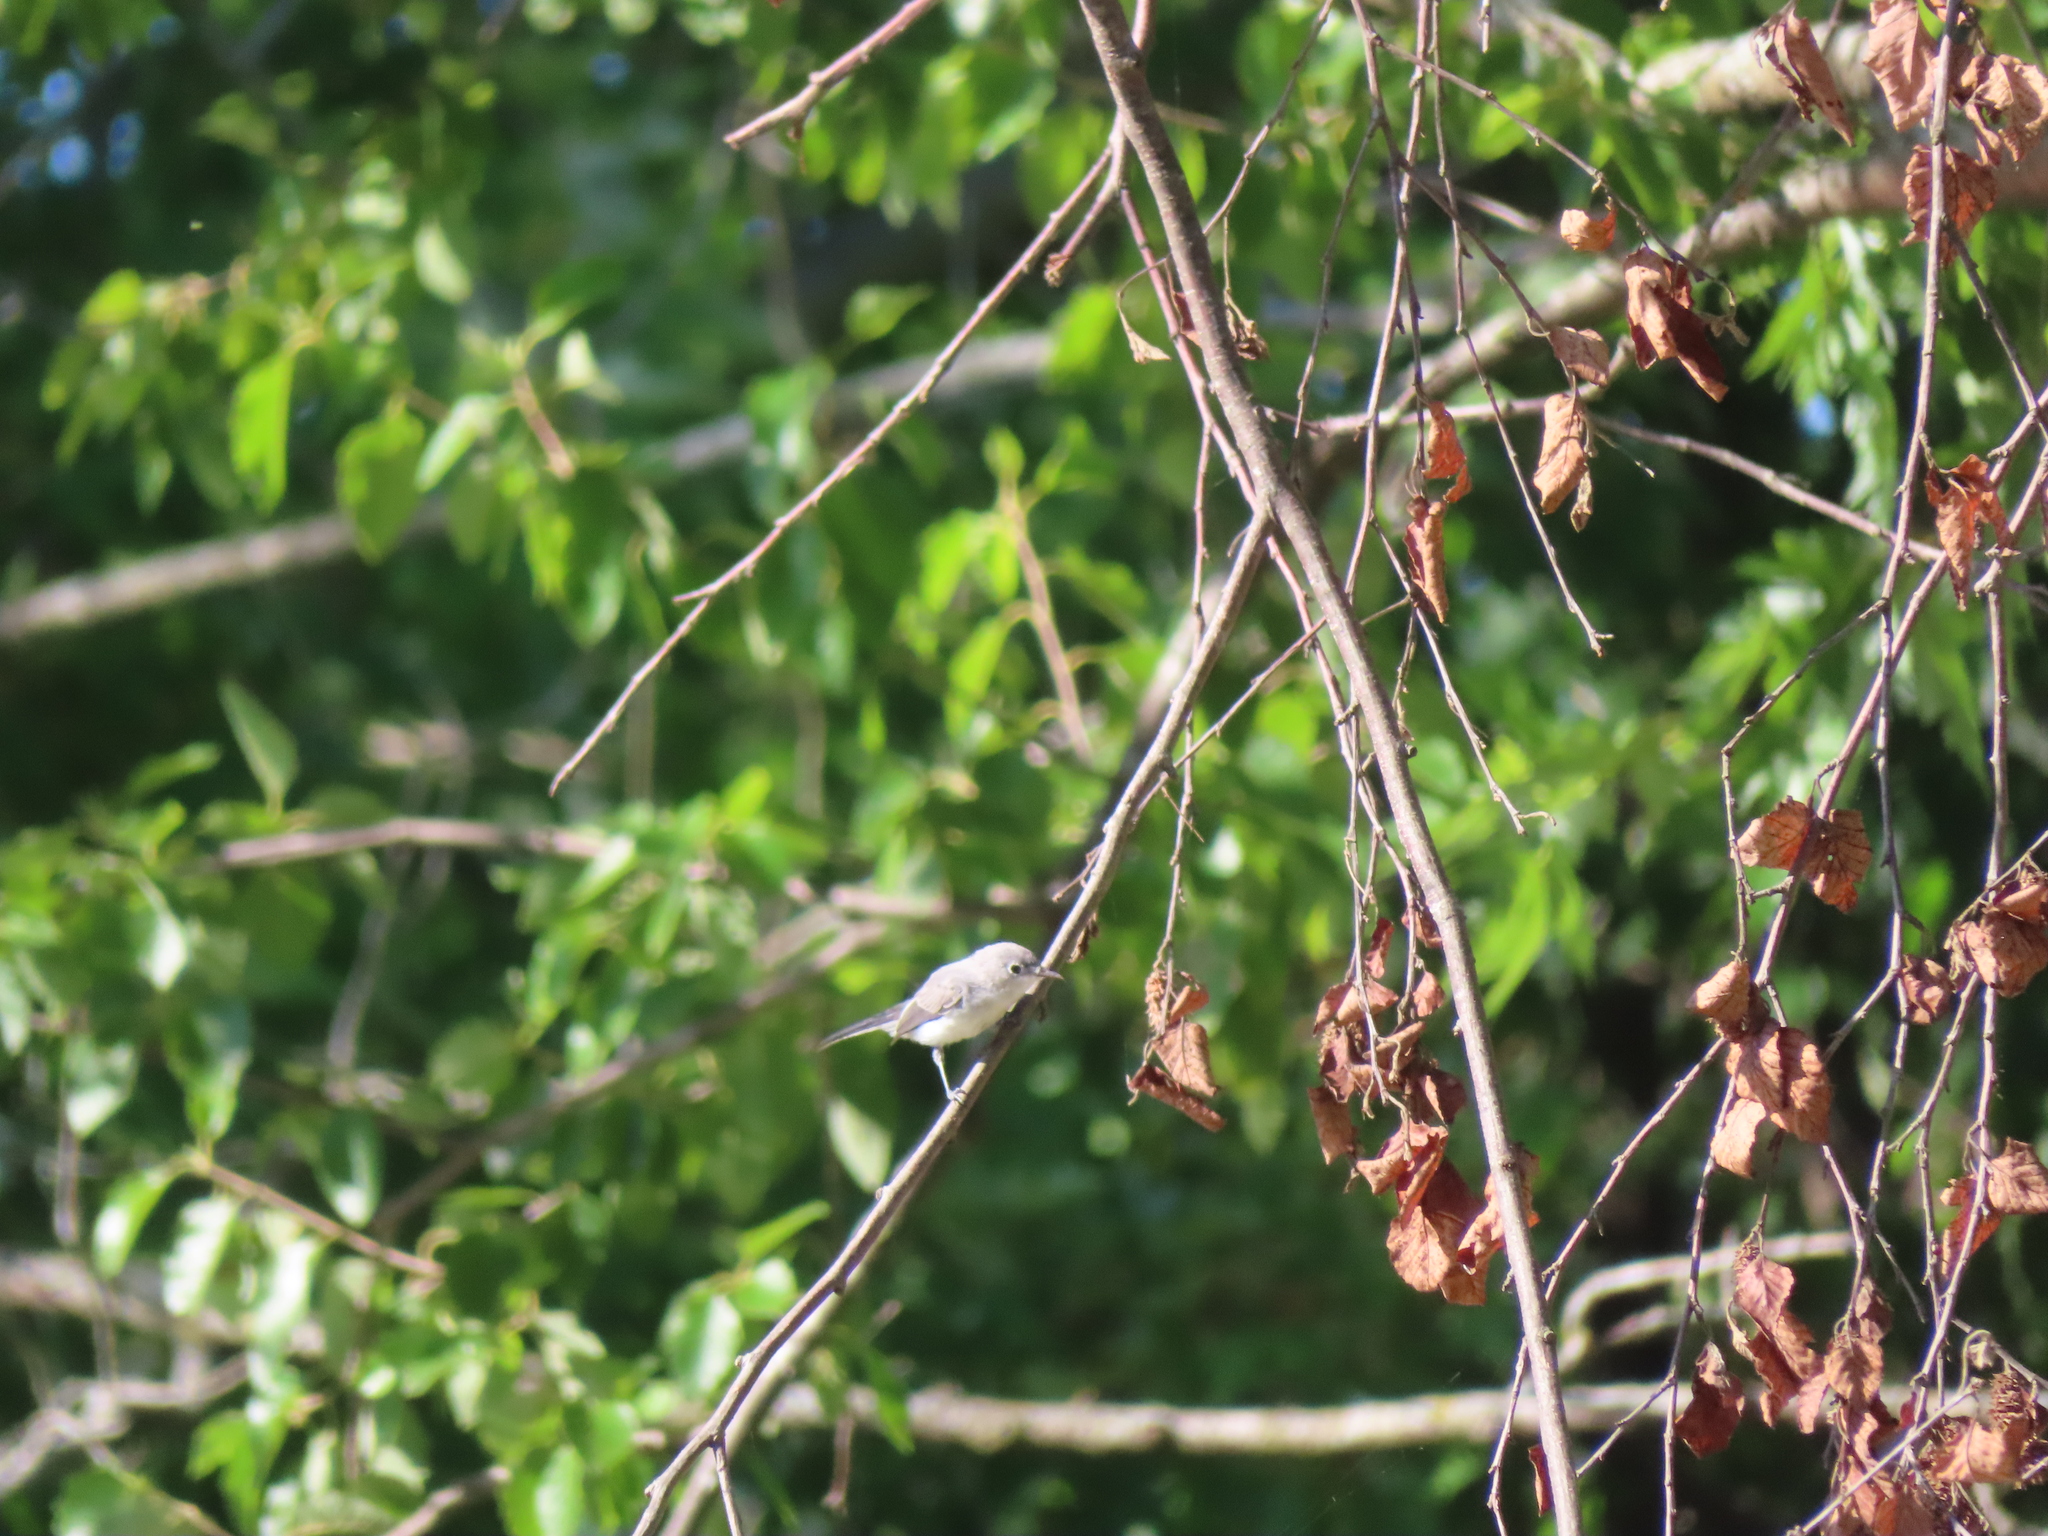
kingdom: Animalia
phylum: Chordata
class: Aves
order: Passeriformes
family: Polioptilidae
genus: Polioptila
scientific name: Polioptila caerulea
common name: Blue-gray gnatcatcher
